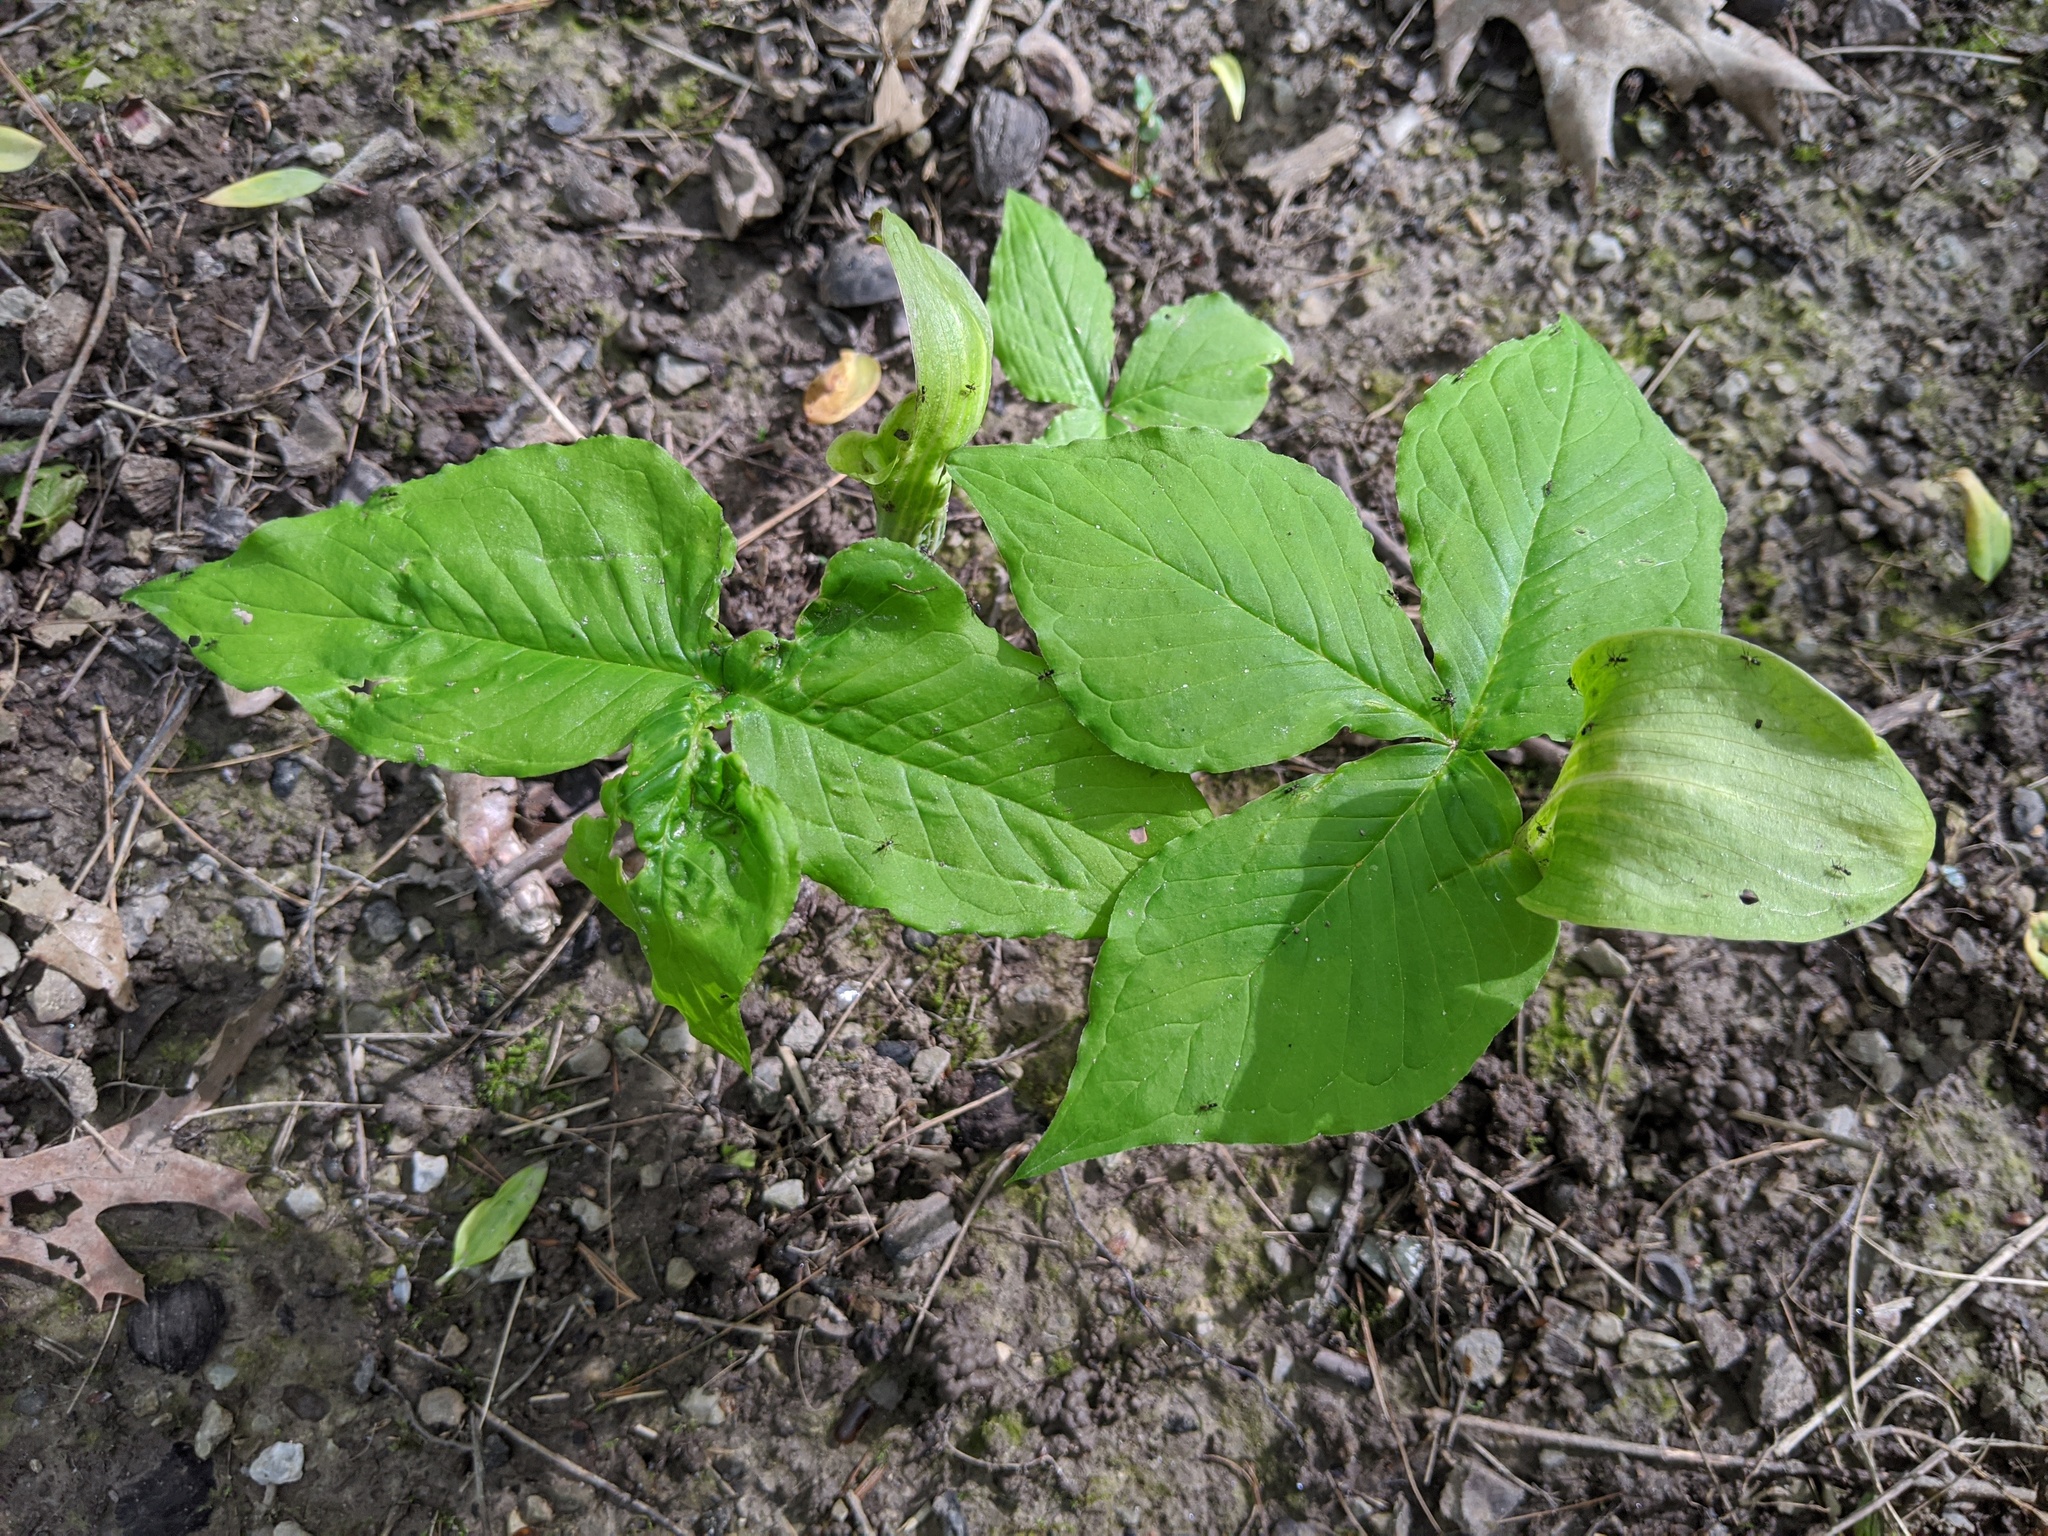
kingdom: Plantae
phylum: Tracheophyta
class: Liliopsida
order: Alismatales
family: Araceae
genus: Arisaema
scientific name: Arisaema triphyllum
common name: Jack-in-the-pulpit
